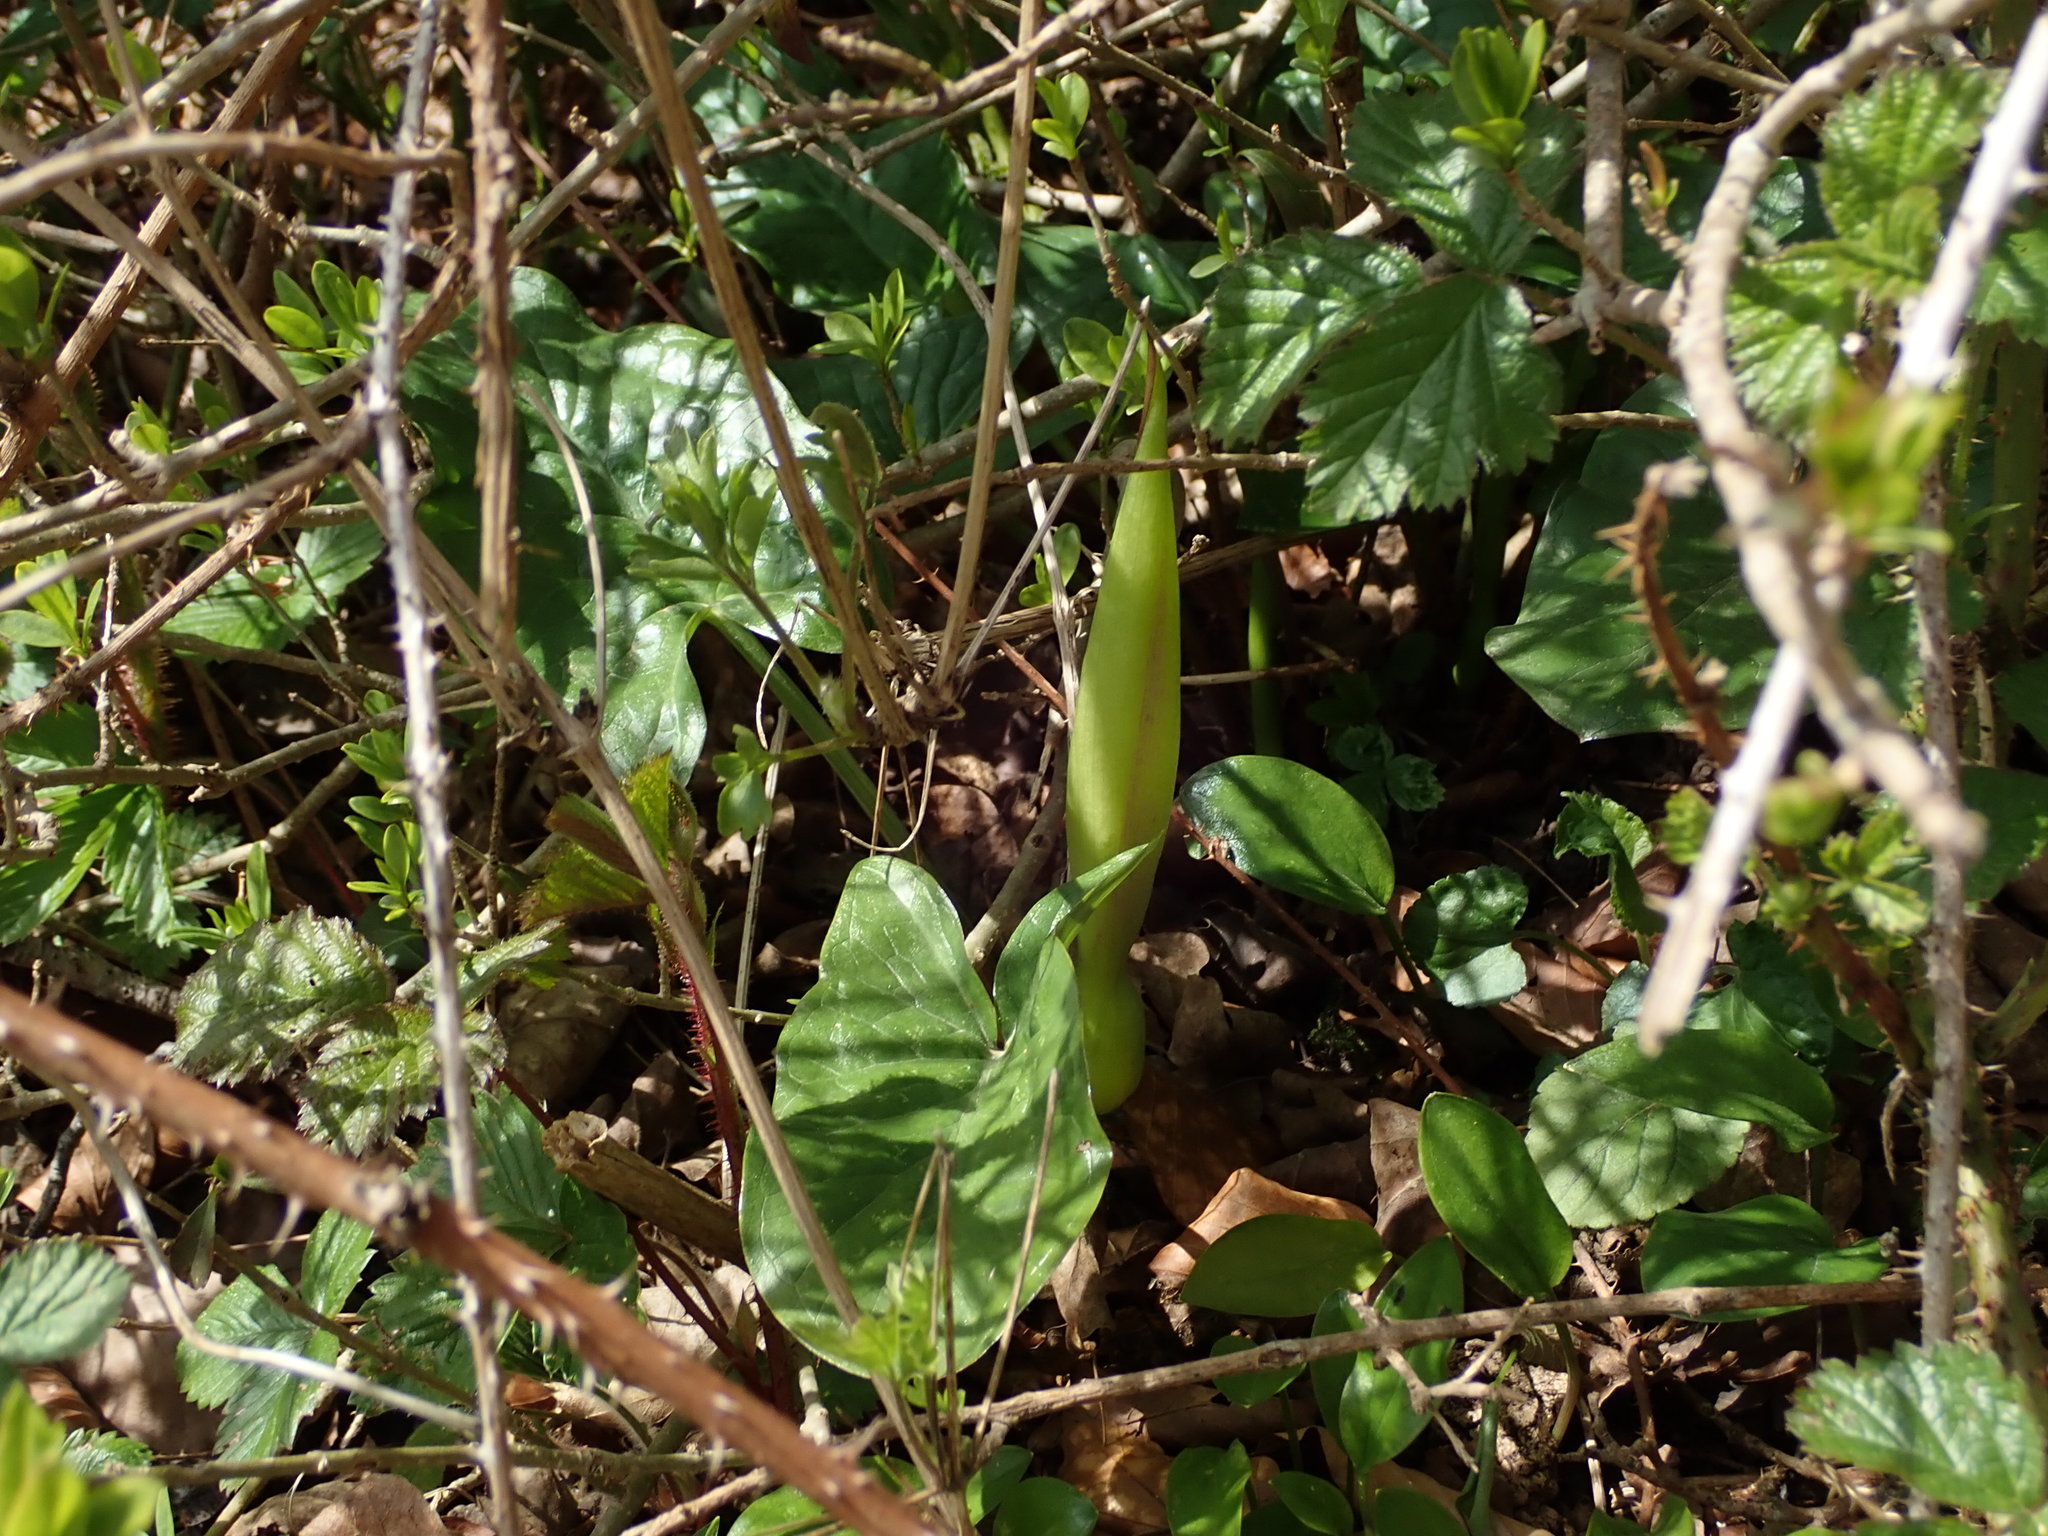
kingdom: Plantae
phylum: Tracheophyta
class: Liliopsida
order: Alismatales
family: Araceae
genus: Arum
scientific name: Arum maculatum
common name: Lords-and-ladies
